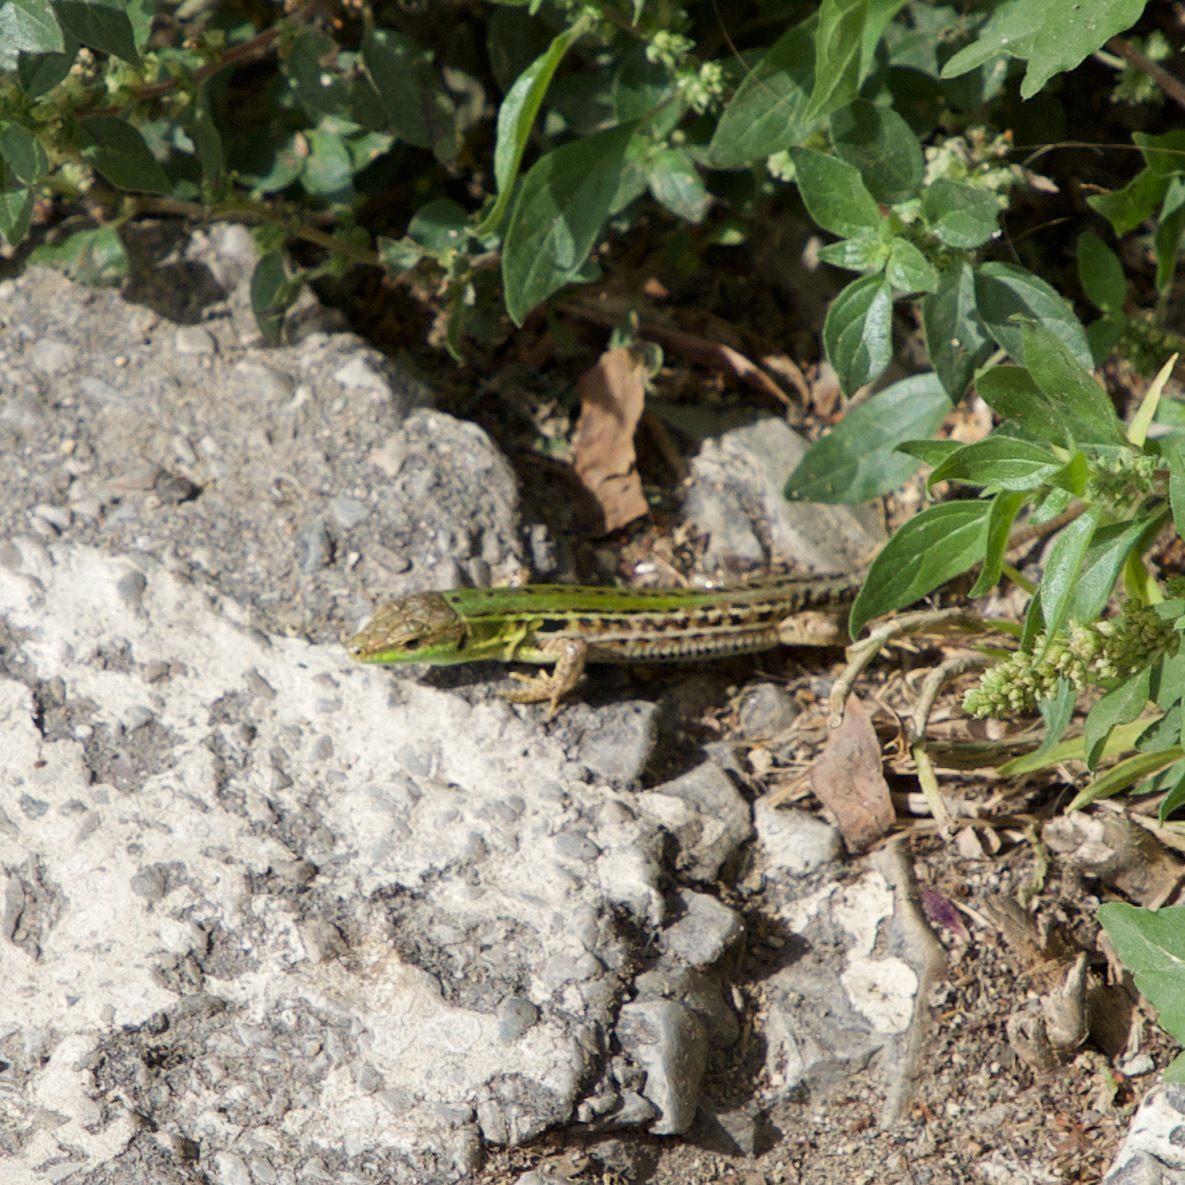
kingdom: Animalia
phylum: Chordata
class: Squamata
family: Lacertidae
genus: Podarcis
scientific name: Podarcis siculus
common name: Italian wall lizard
